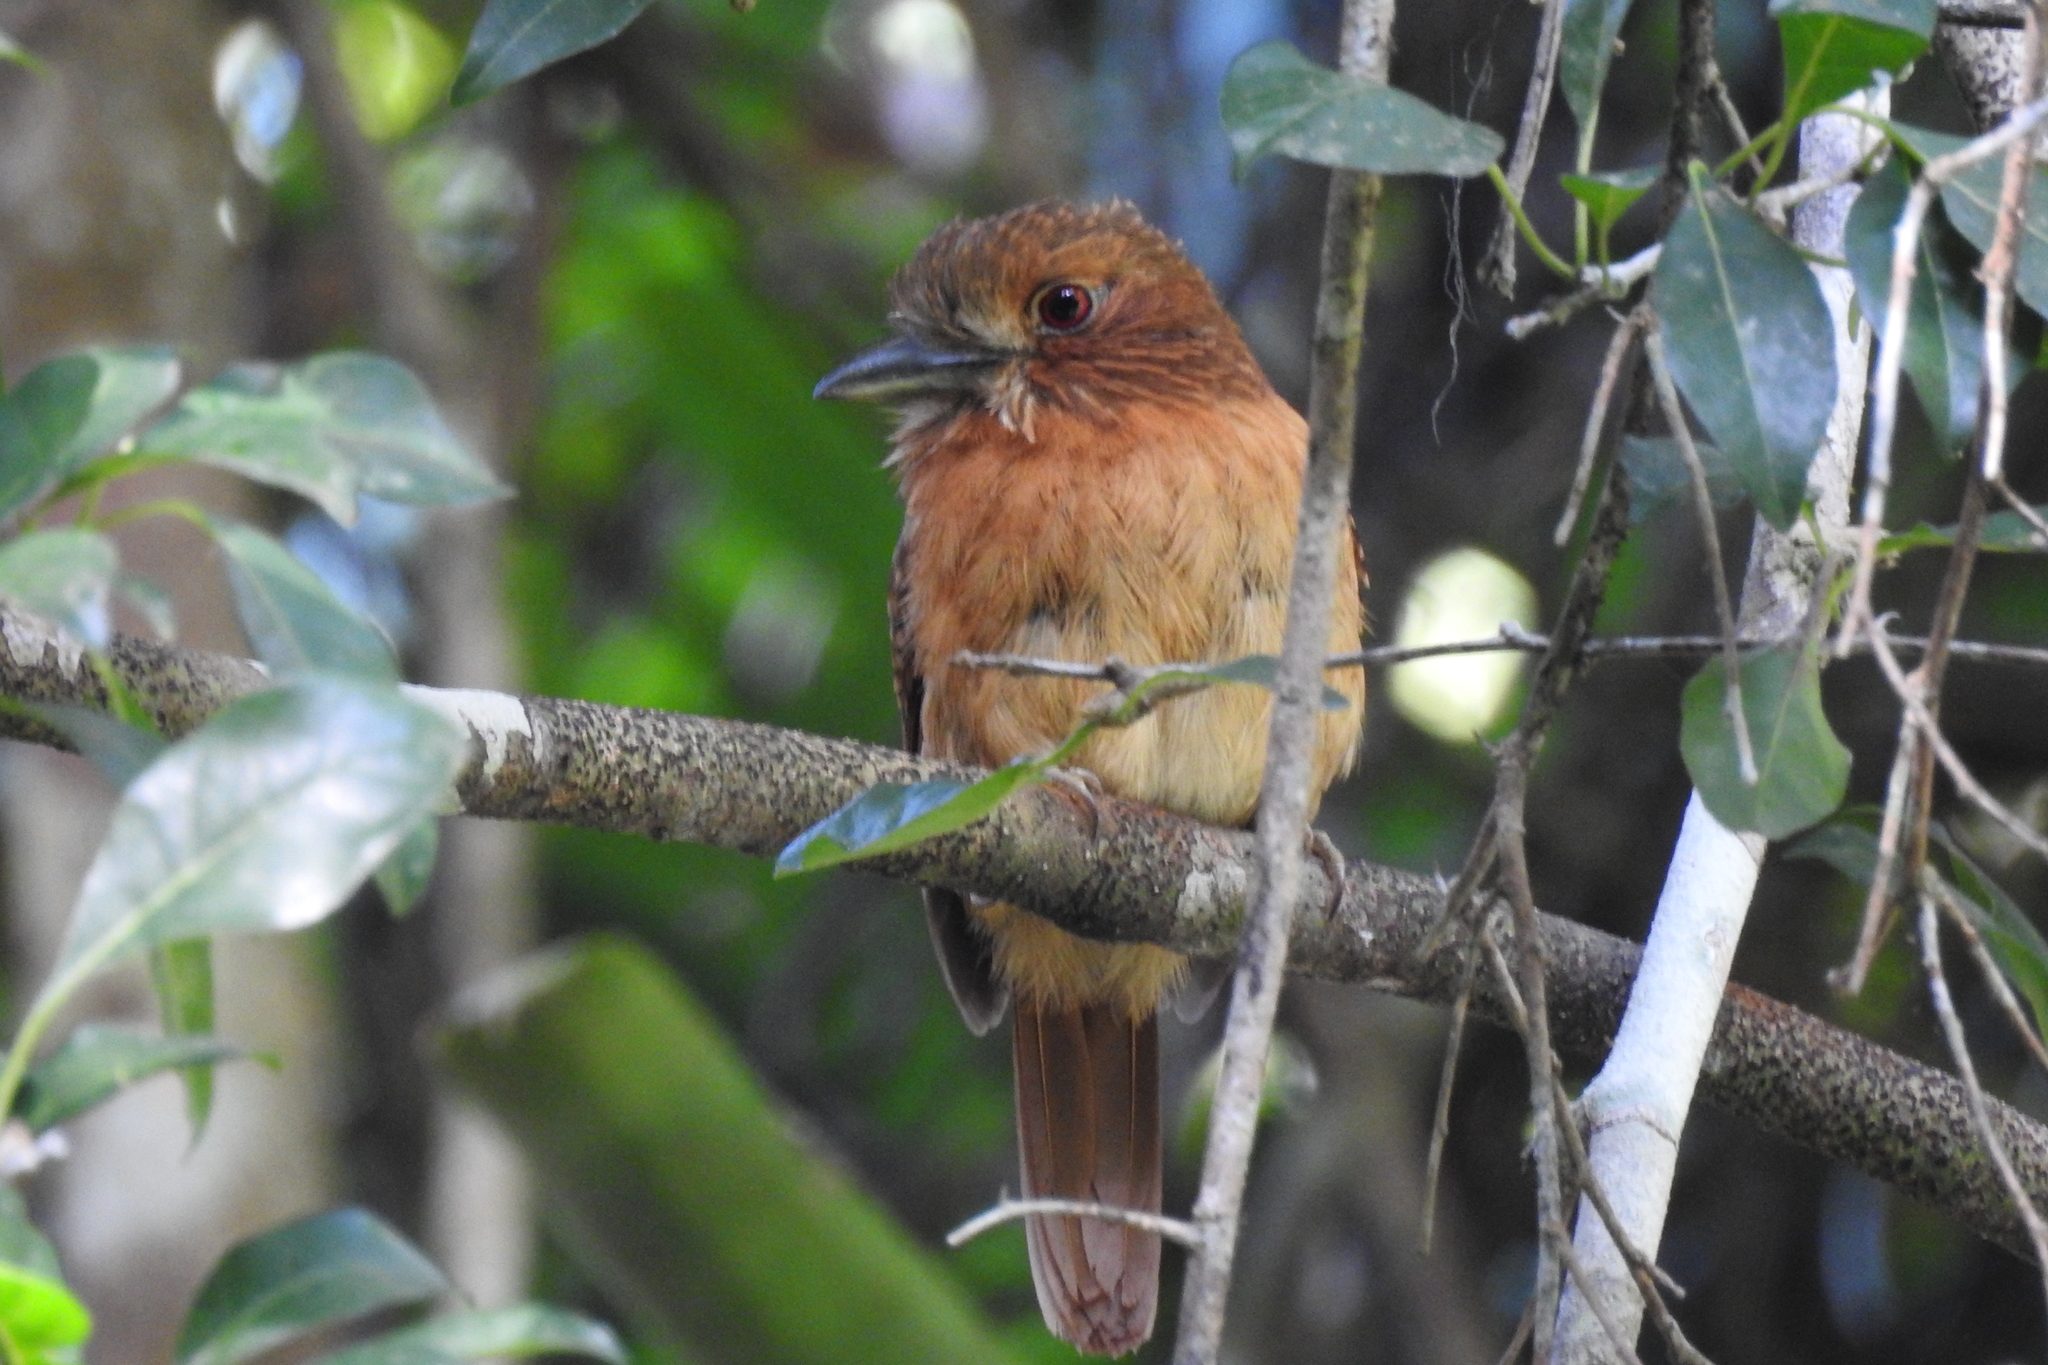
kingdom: Animalia
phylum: Chordata
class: Aves
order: Piciformes
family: Bucconidae
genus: Malacoptila
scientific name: Malacoptila panamensis
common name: White-whiskered puffbird
